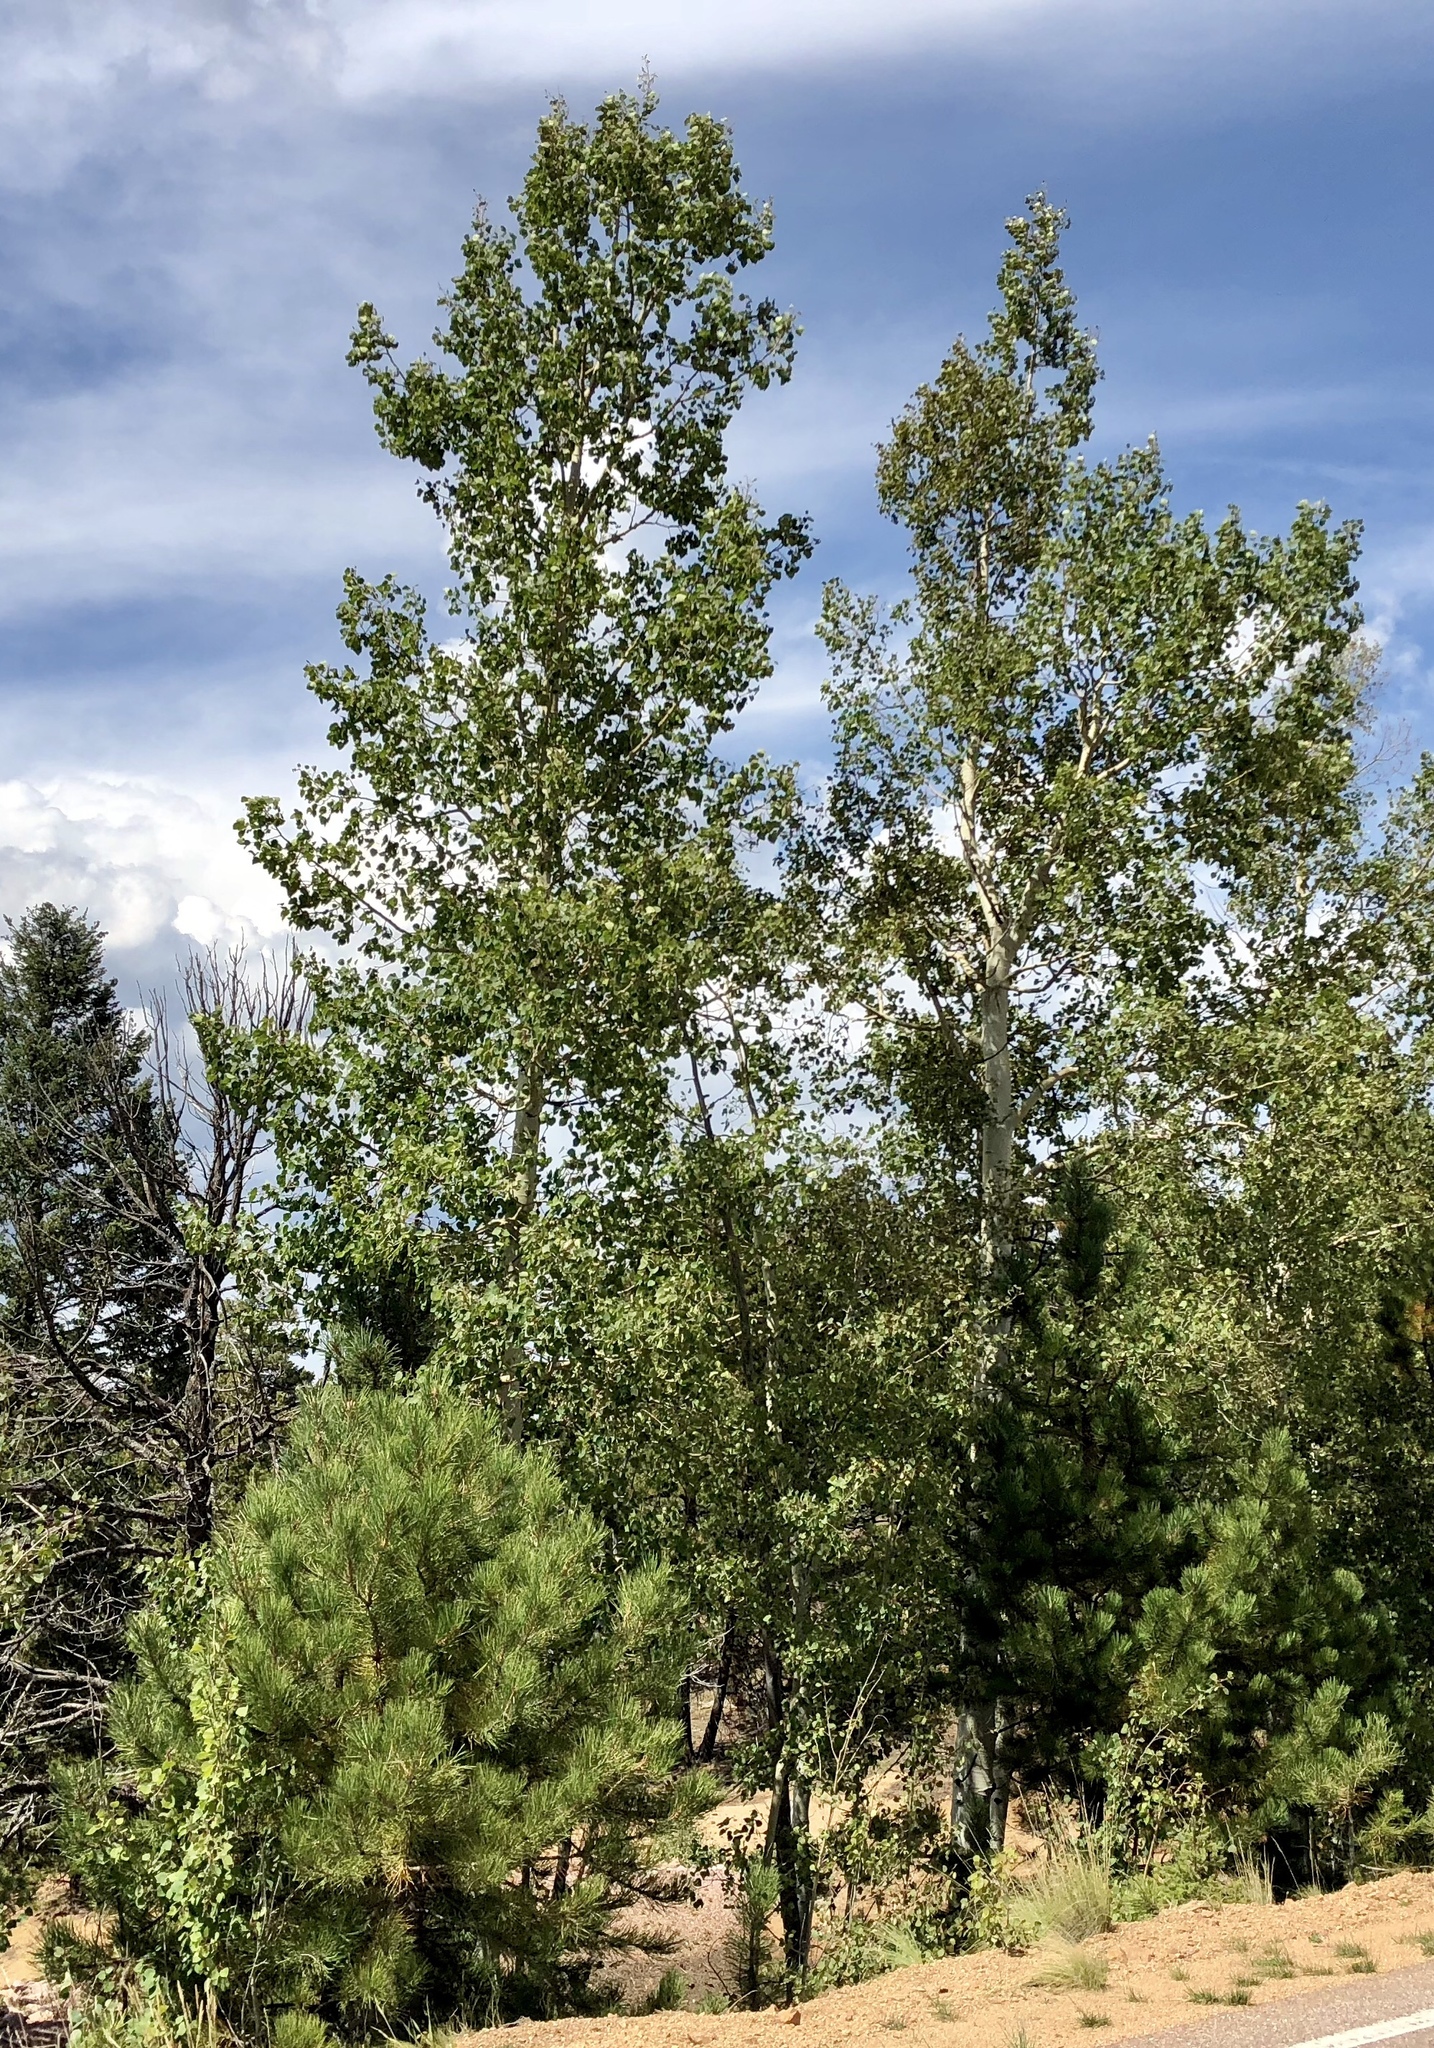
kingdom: Plantae
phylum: Tracheophyta
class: Magnoliopsida
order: Malpighiales
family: Salicaceae
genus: Populus
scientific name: Populus tremuloides
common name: Quaking aspen
